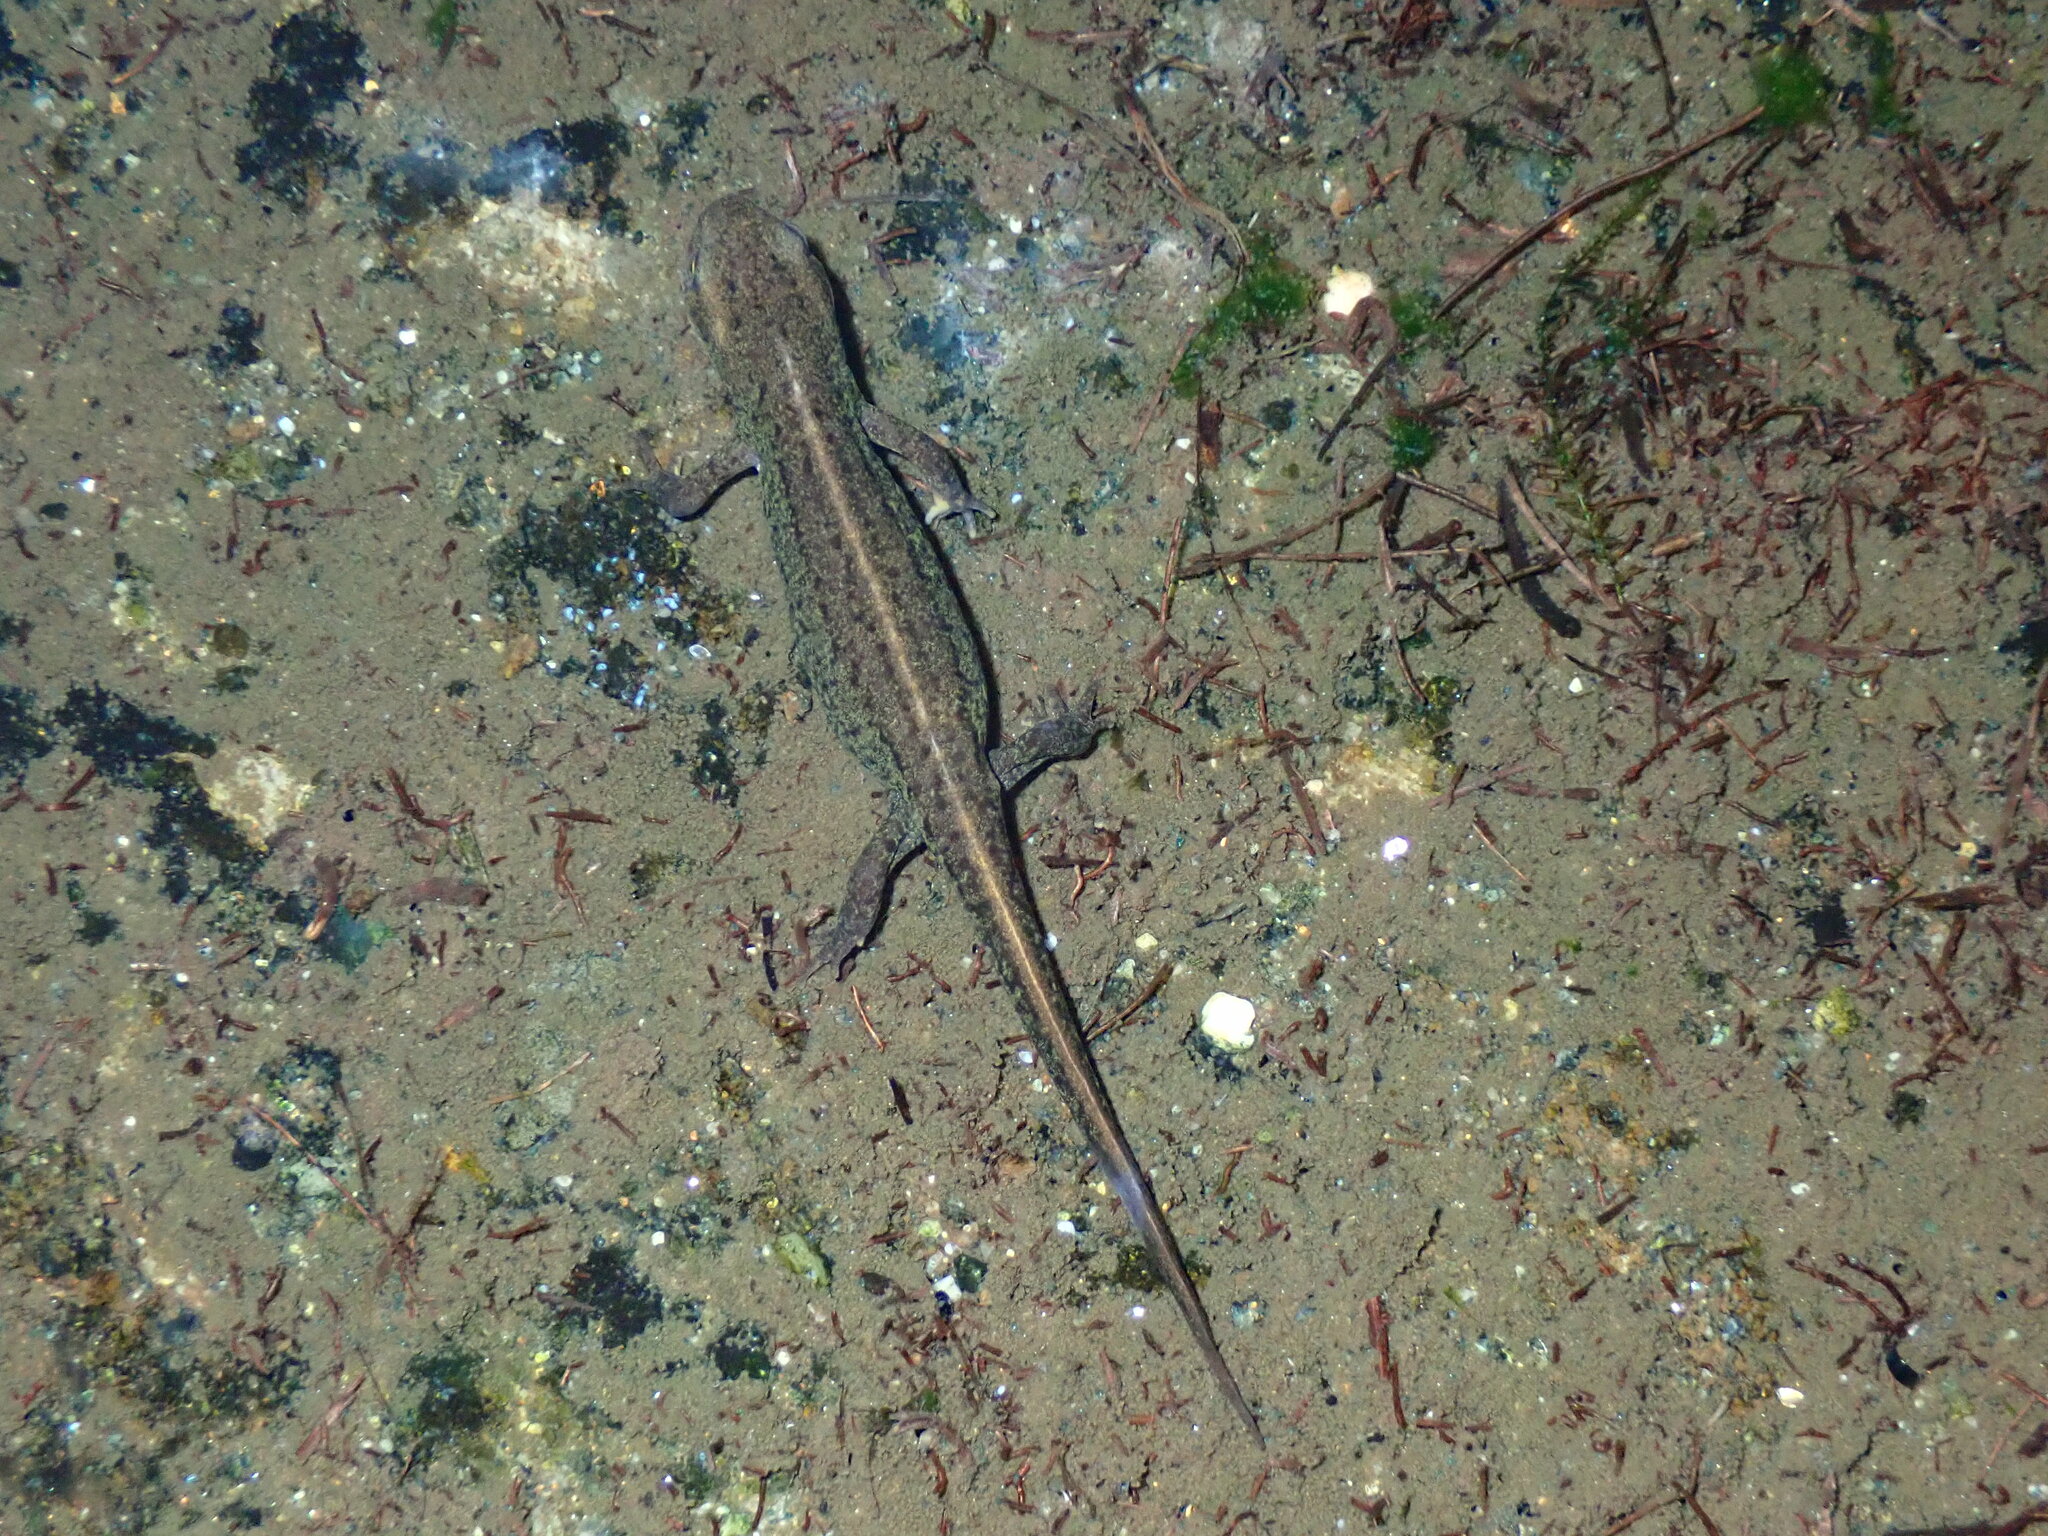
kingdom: Animalia
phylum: Chordata
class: Amphibia
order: Caudata
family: Salamandridae
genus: Lissotriton
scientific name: Lissotriton boscai
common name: Bosca's newt
